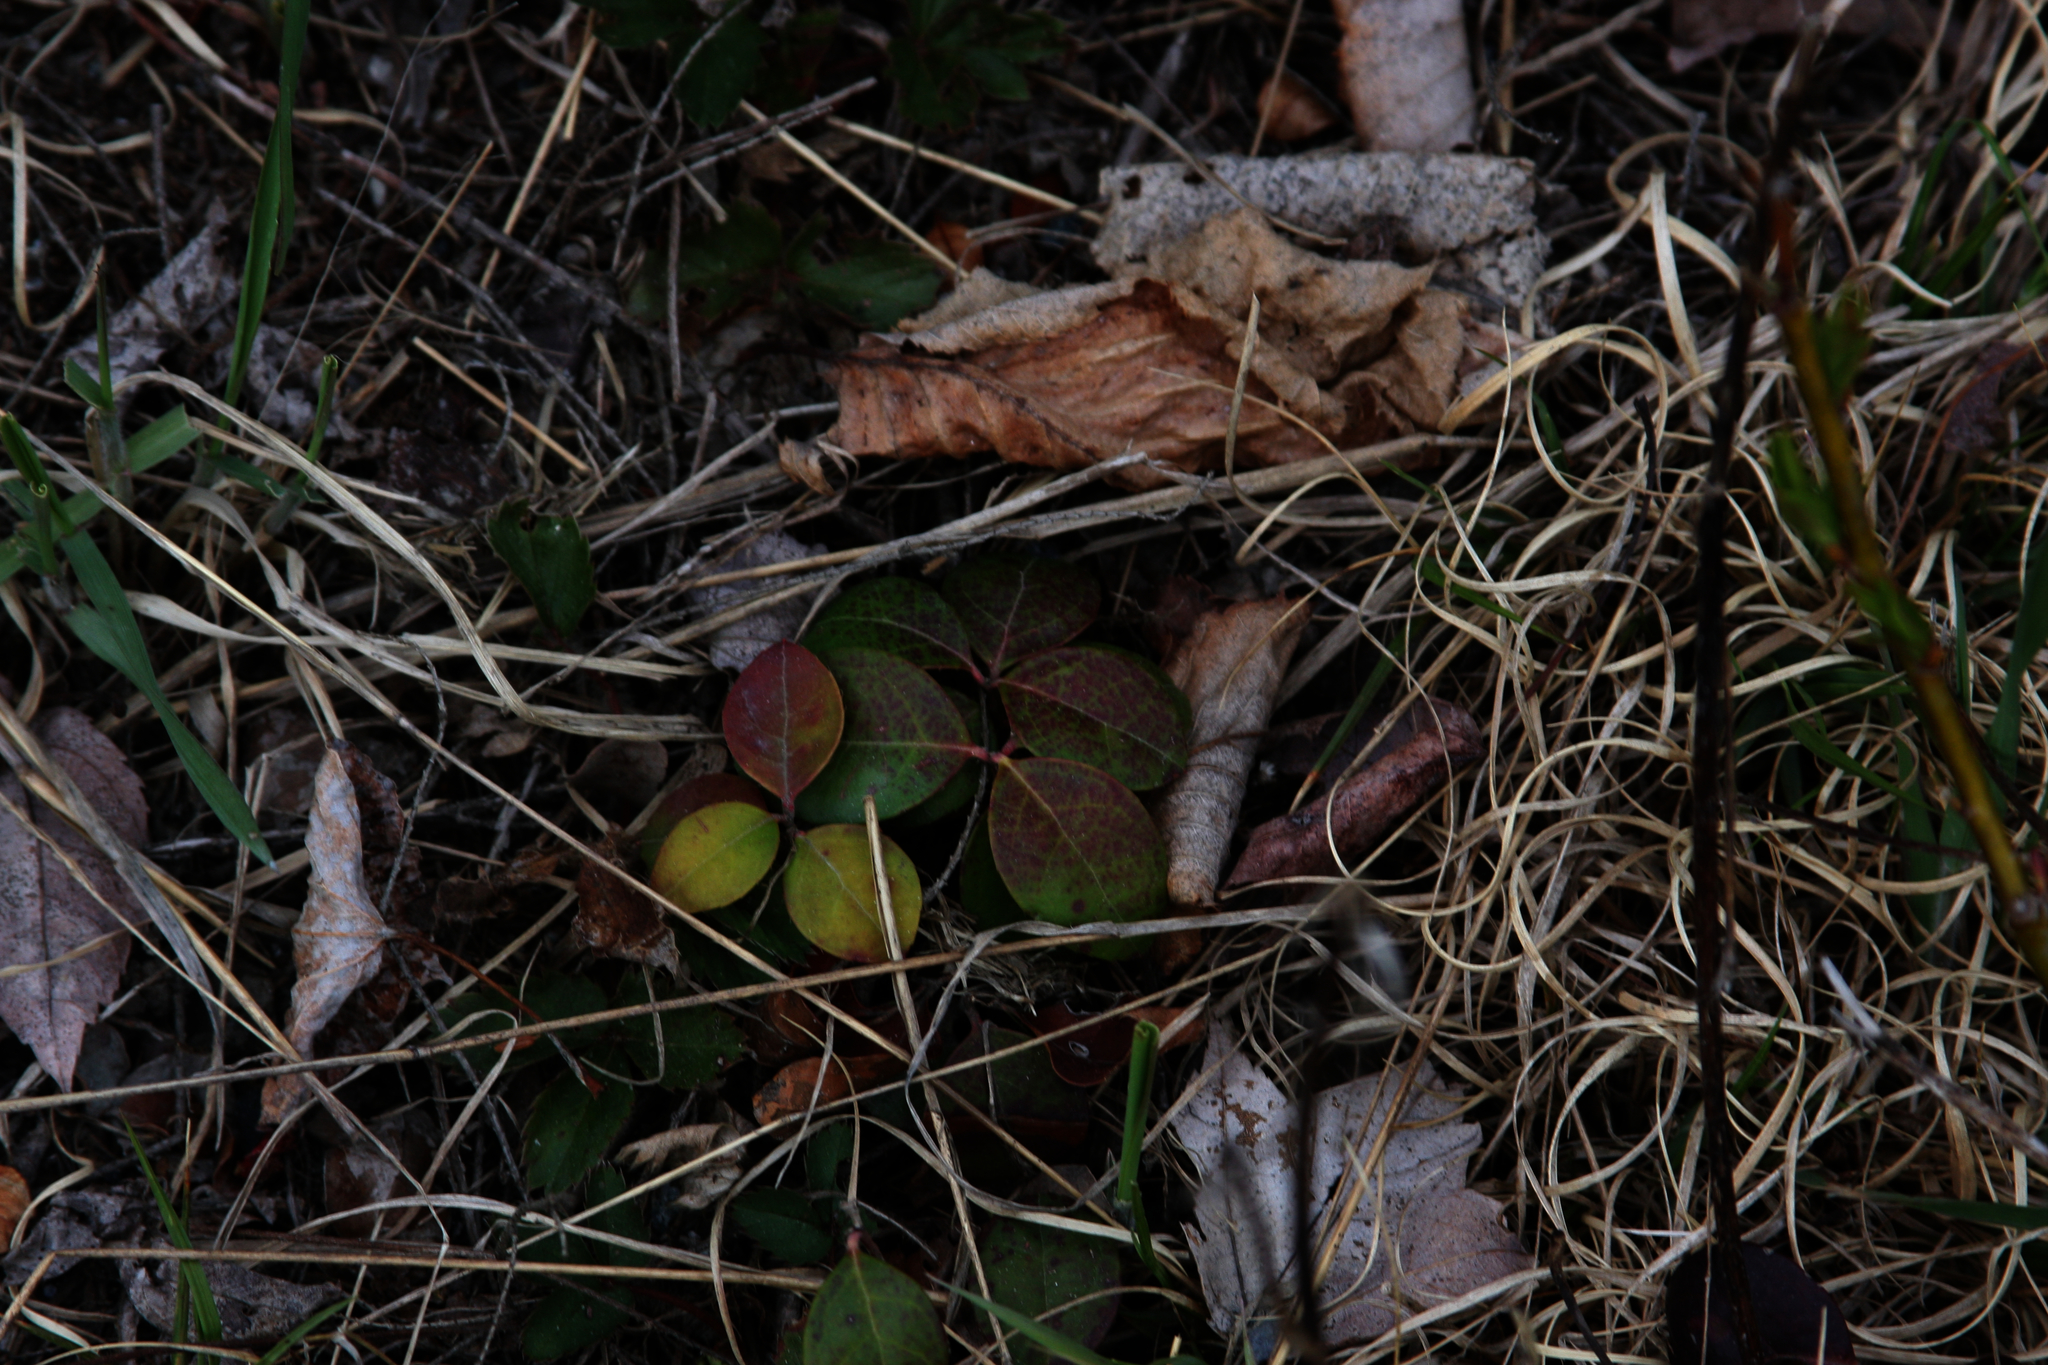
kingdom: Plantae
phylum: Tracheophyta
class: Magnoliopsida
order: Ericales
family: Ericaceae
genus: Gaultheria
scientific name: Gaultheria procumbens
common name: Checkerberry
